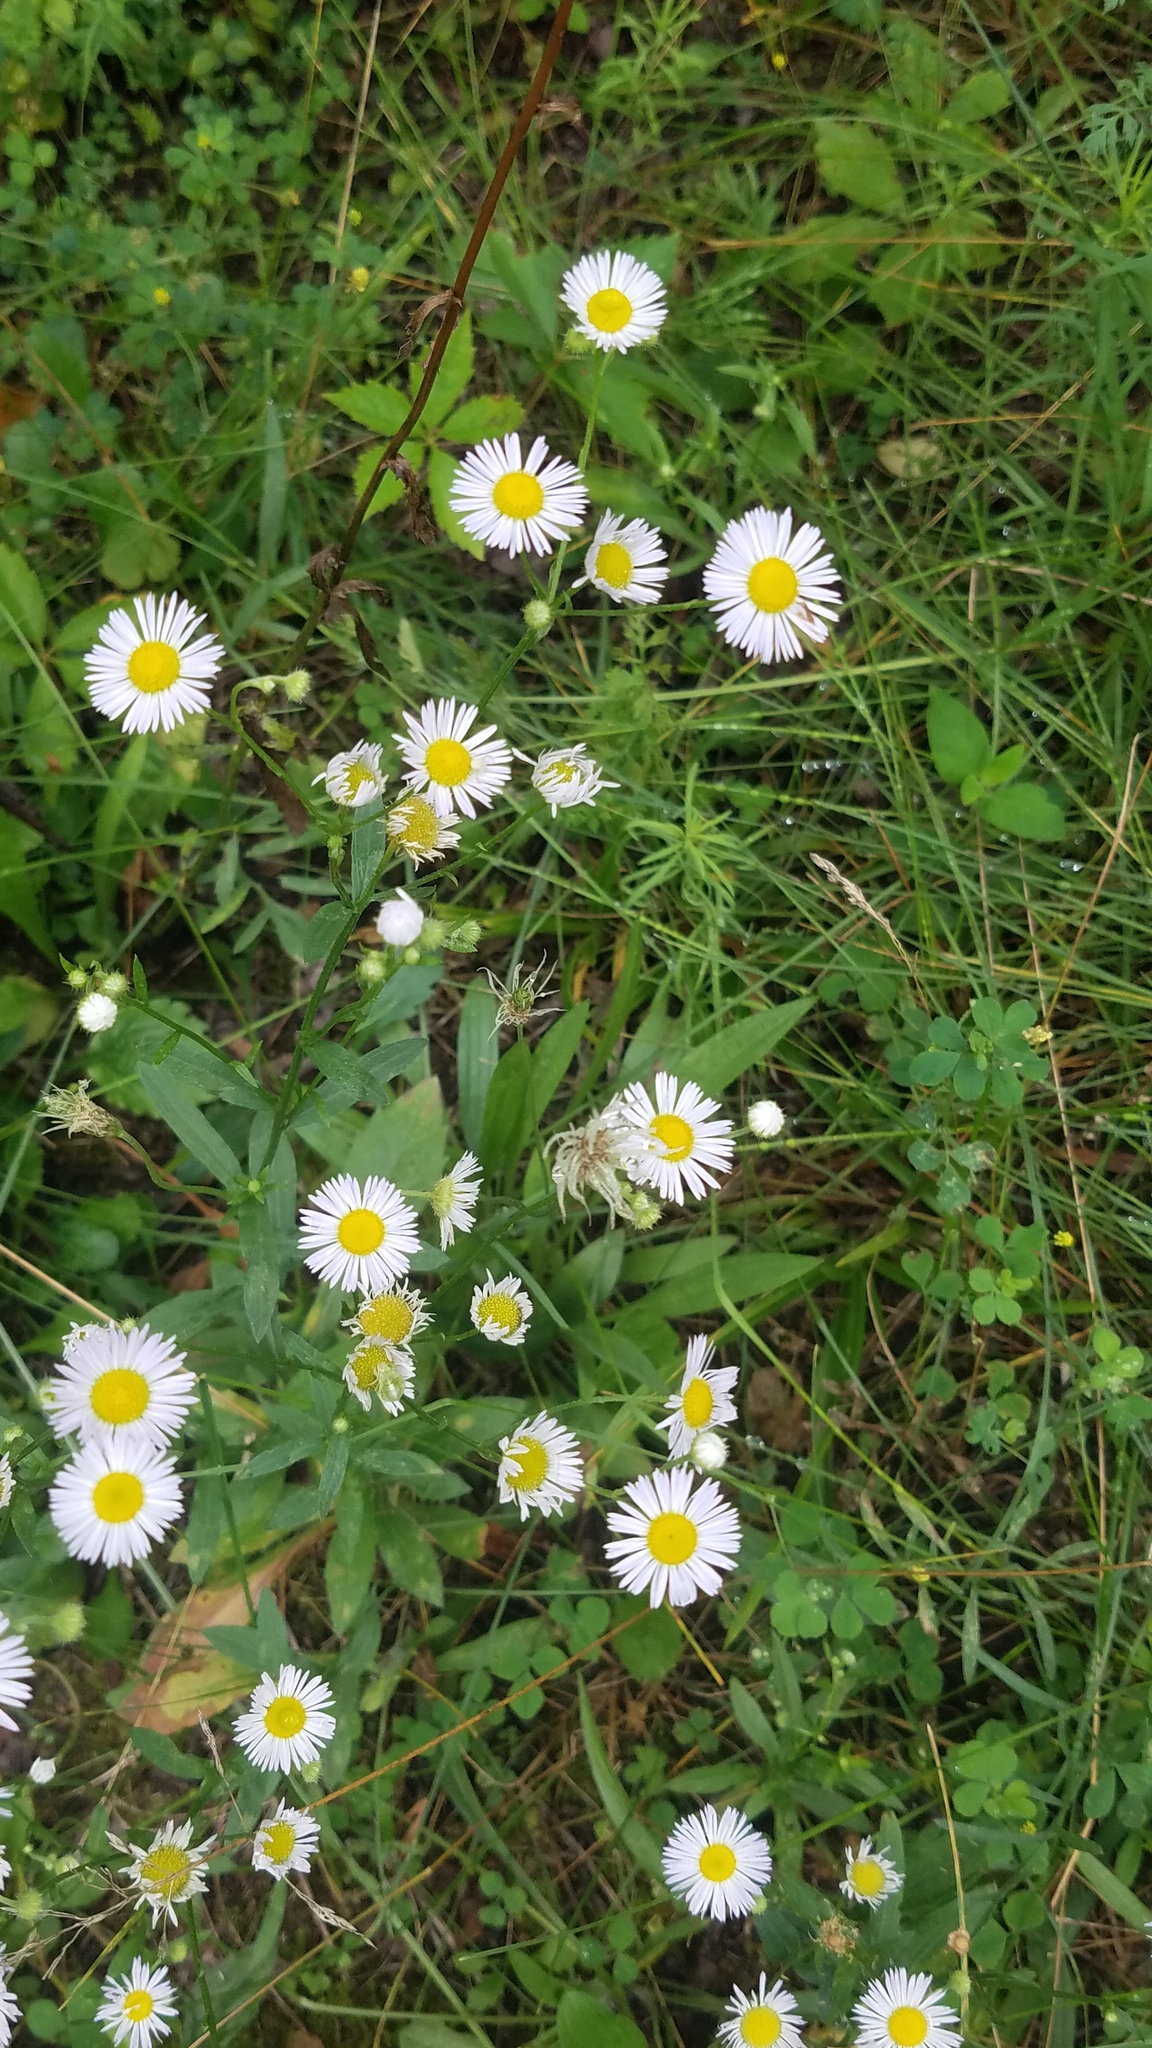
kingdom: Plantae
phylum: Tracheophyta
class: Magnoliopsida
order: Asterales
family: Asteraceae
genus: Erigeron
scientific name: Erigeron annuus
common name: Tall fleabane
